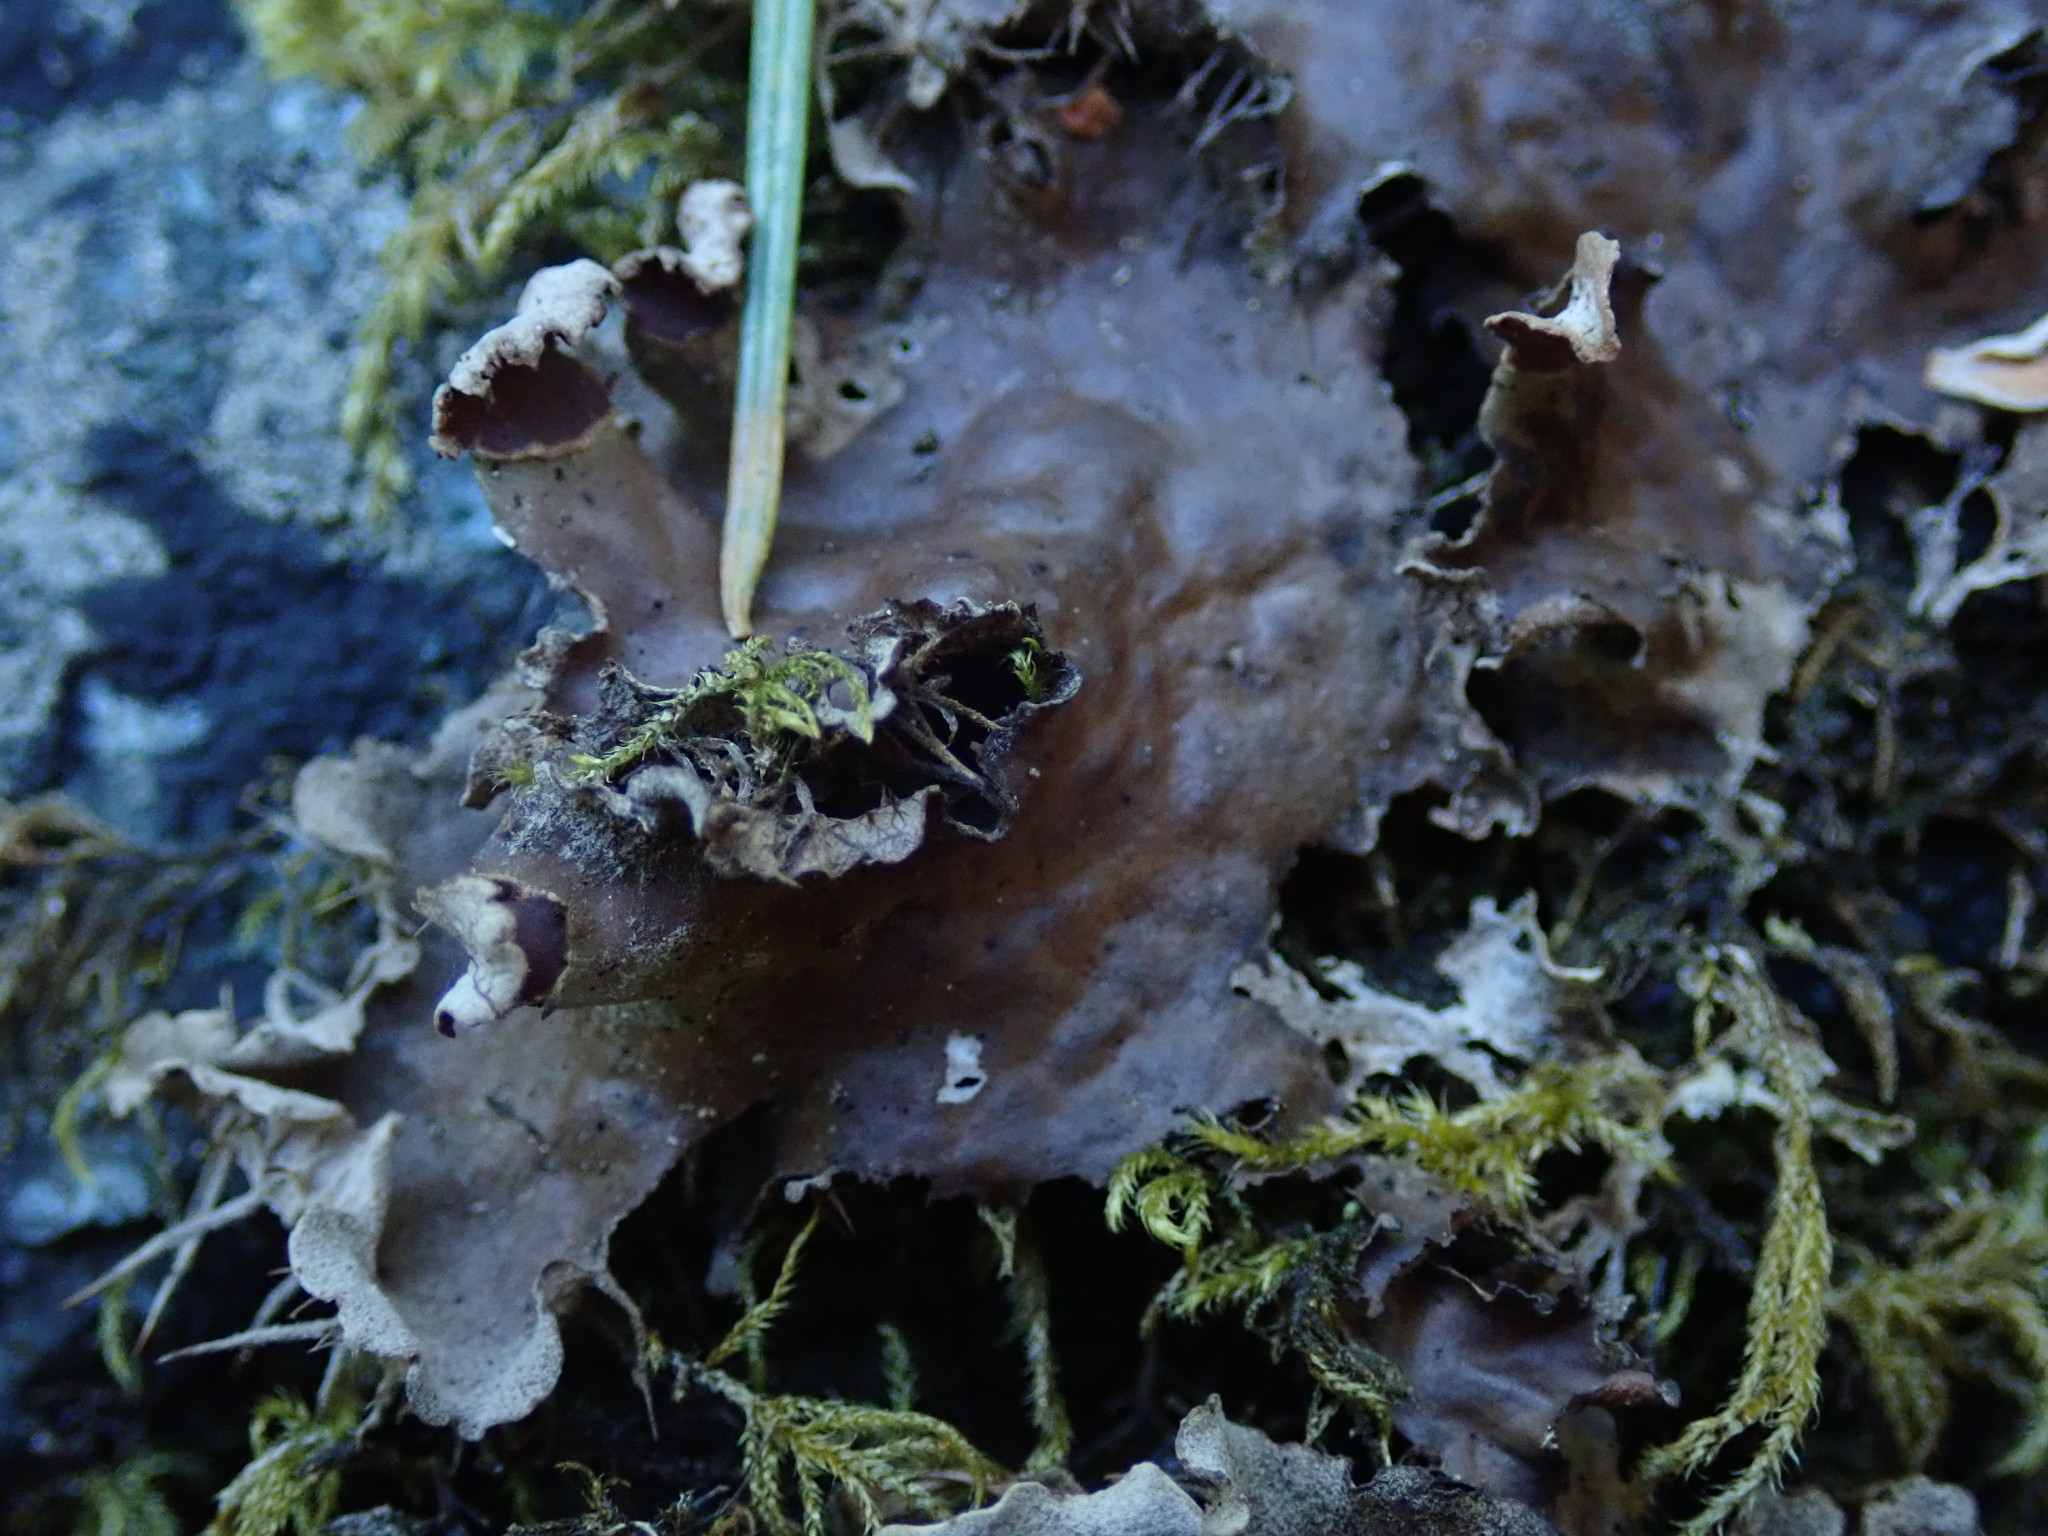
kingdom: Fungi
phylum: Ascomycota
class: Lecanoromycetes
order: Peltigerales
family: Peltigeraceae
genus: Peltigera
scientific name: Peltigera membranacea
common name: Membranous pelt lichen
